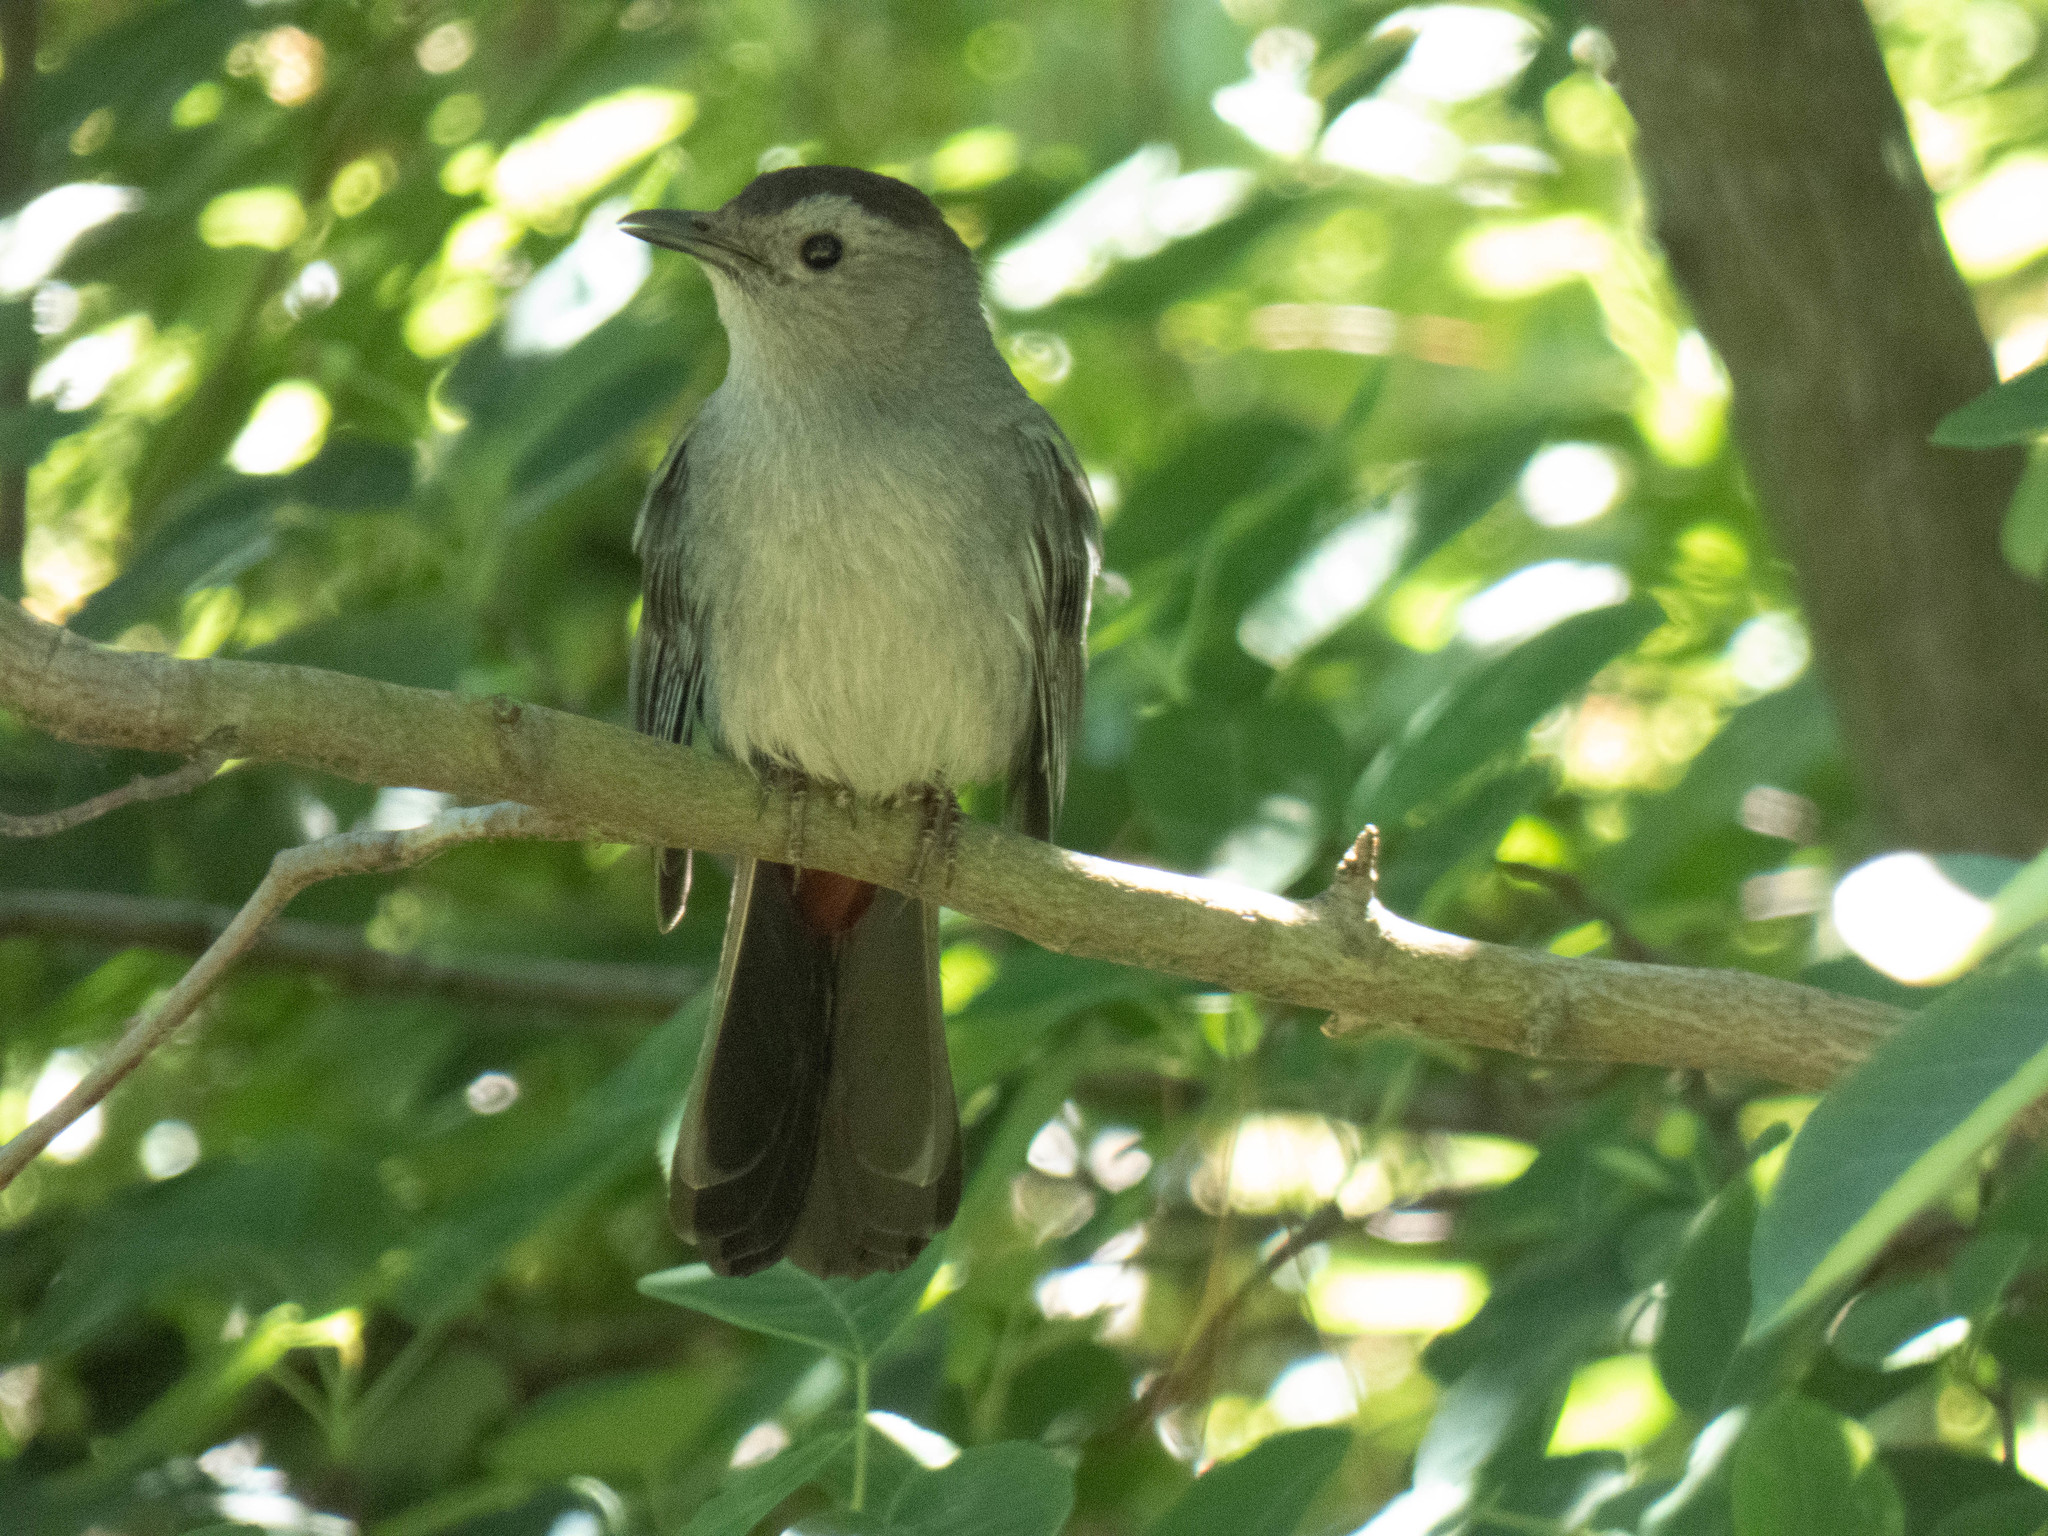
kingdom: Animalia
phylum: Chordata
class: Aves
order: Passeriformes
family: Mimidae
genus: Dumetella
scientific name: Dumetella carolinensis
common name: Gray catbird
